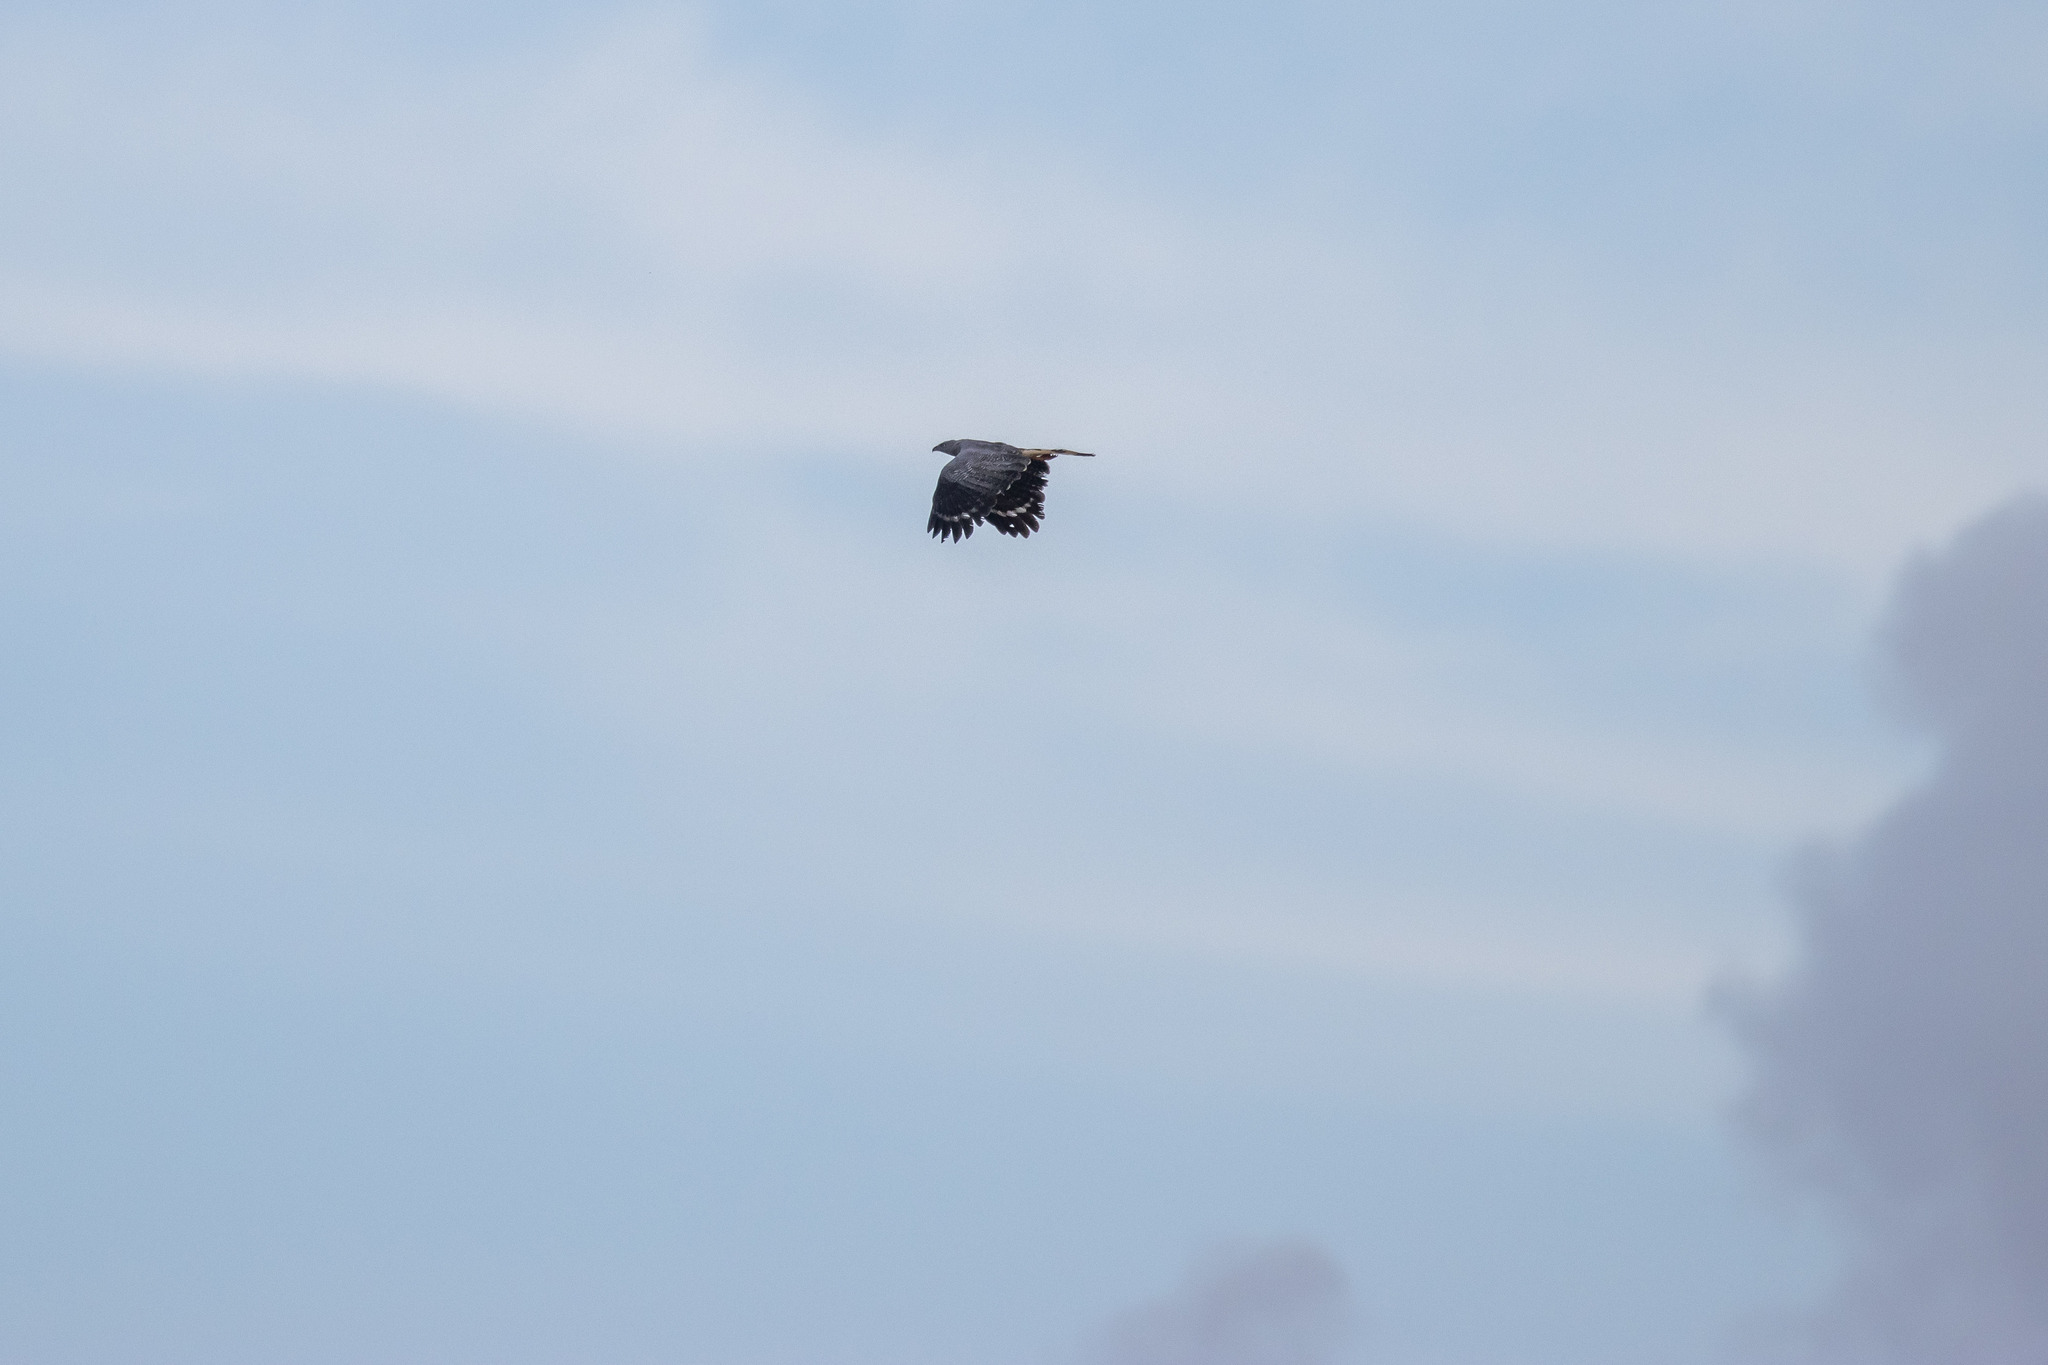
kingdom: Animalia
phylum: Chordata
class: Aves
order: Accipitriformes
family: Accipitridae
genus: Geranospiza
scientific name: Geranospiza caerulescens
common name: Crane hawk
